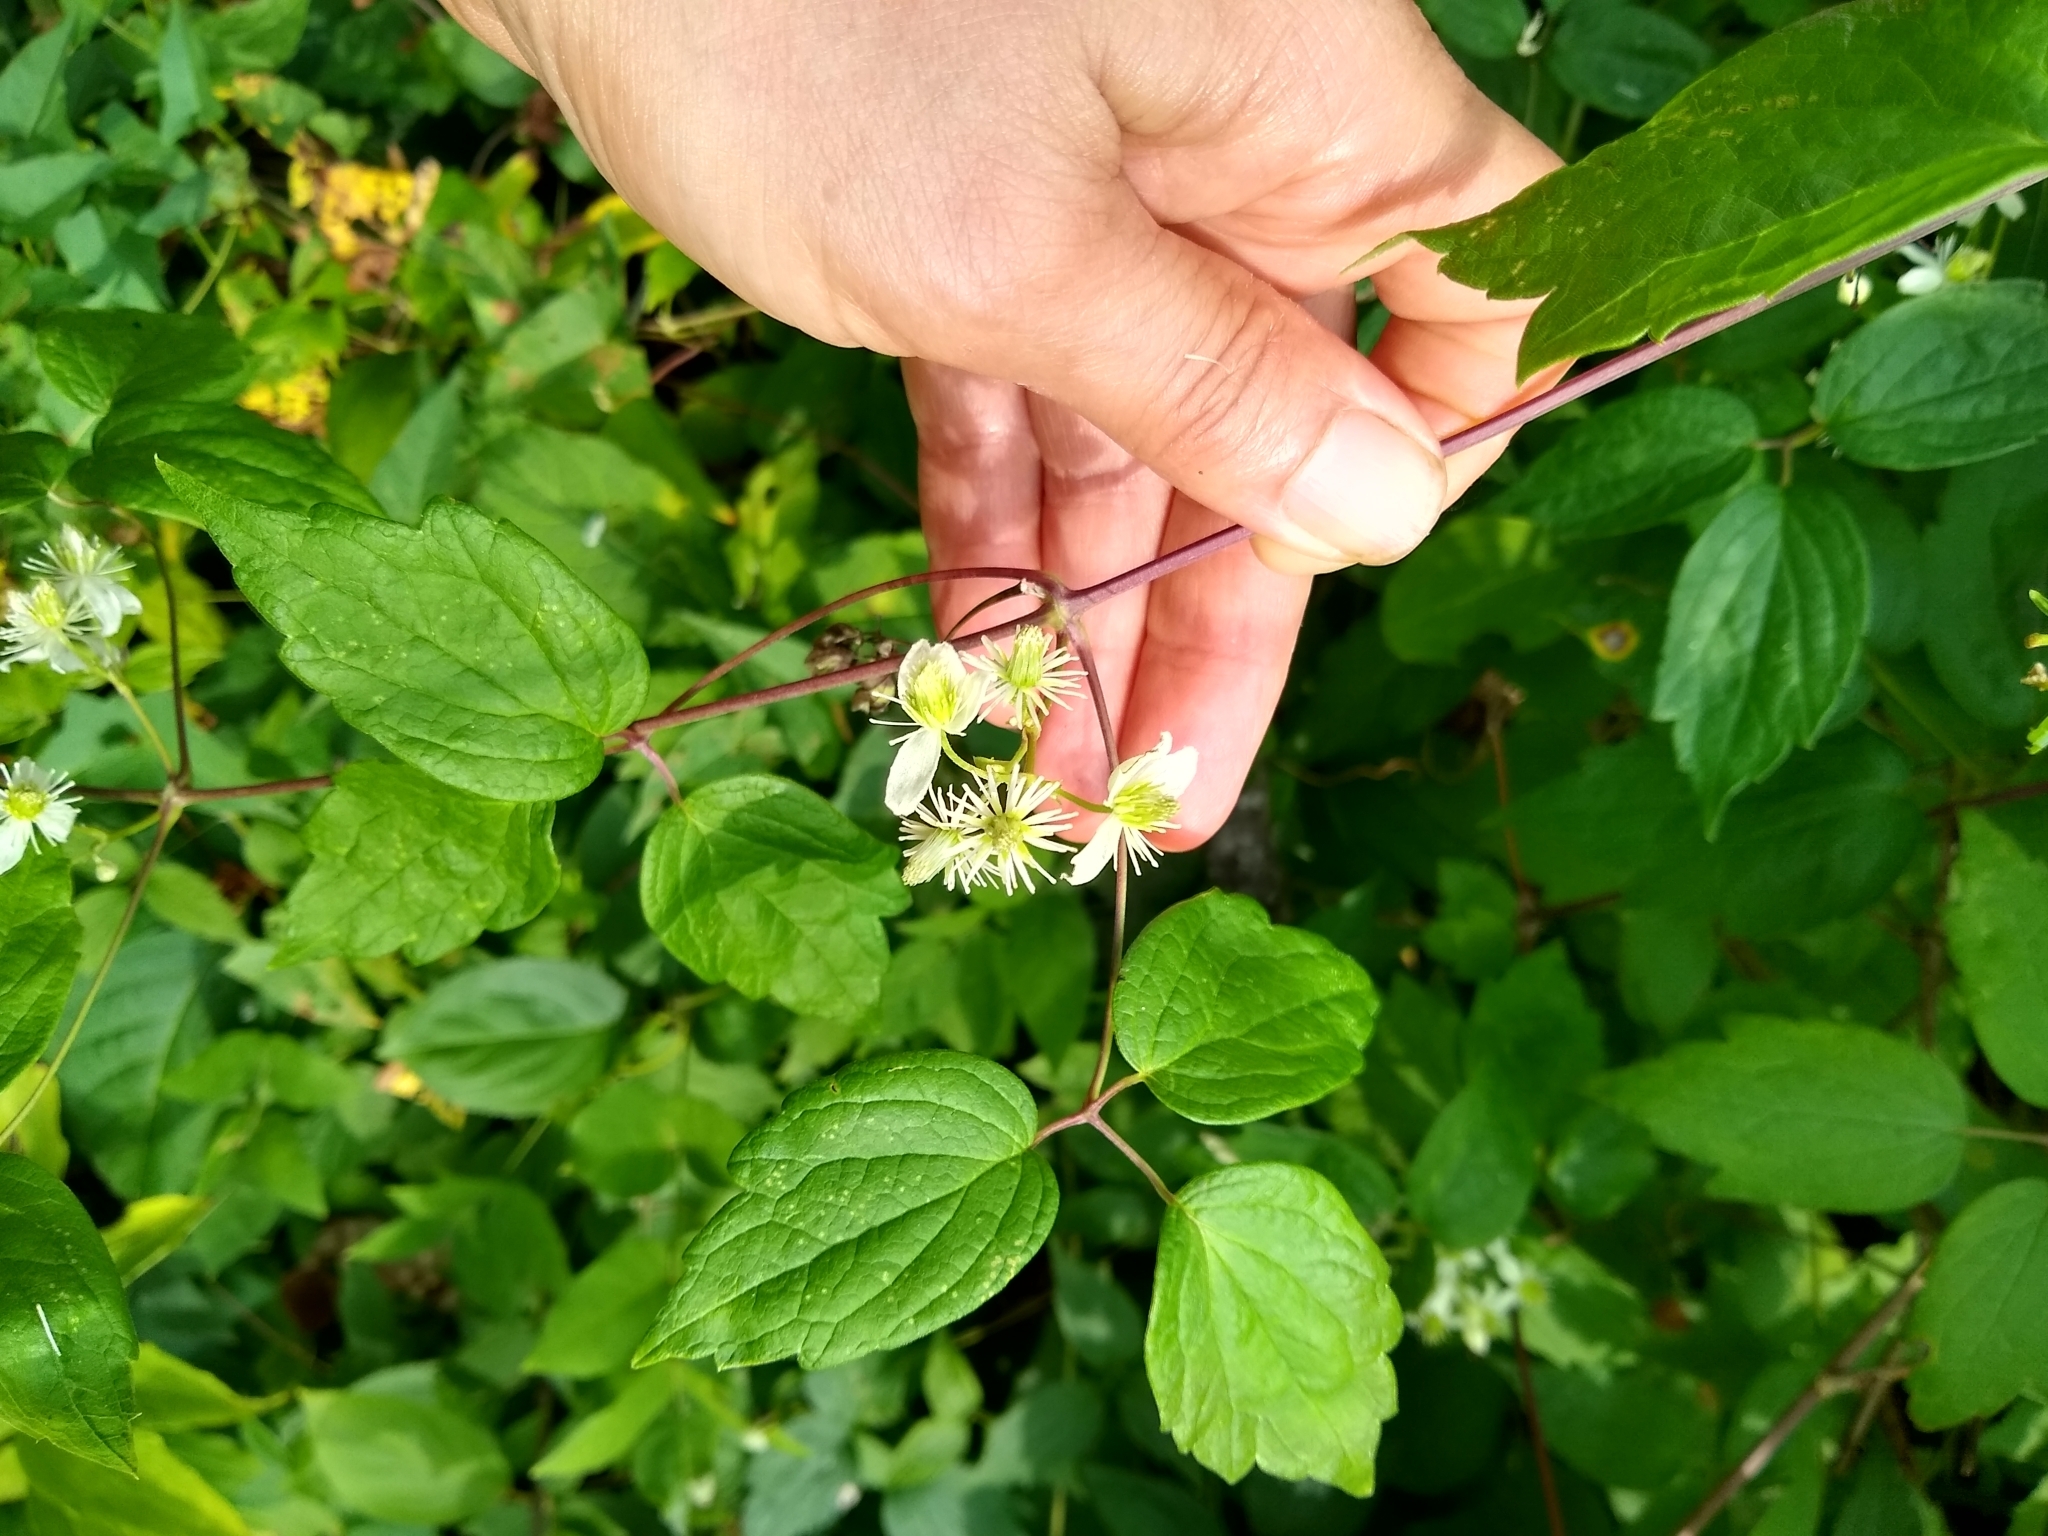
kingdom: Plantae
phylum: Tracheophyta
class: Magnoliopsida
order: Ranunculales
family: Ranunculaceae
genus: Clematis
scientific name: Clematis virginiana
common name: Virgin's-bower
